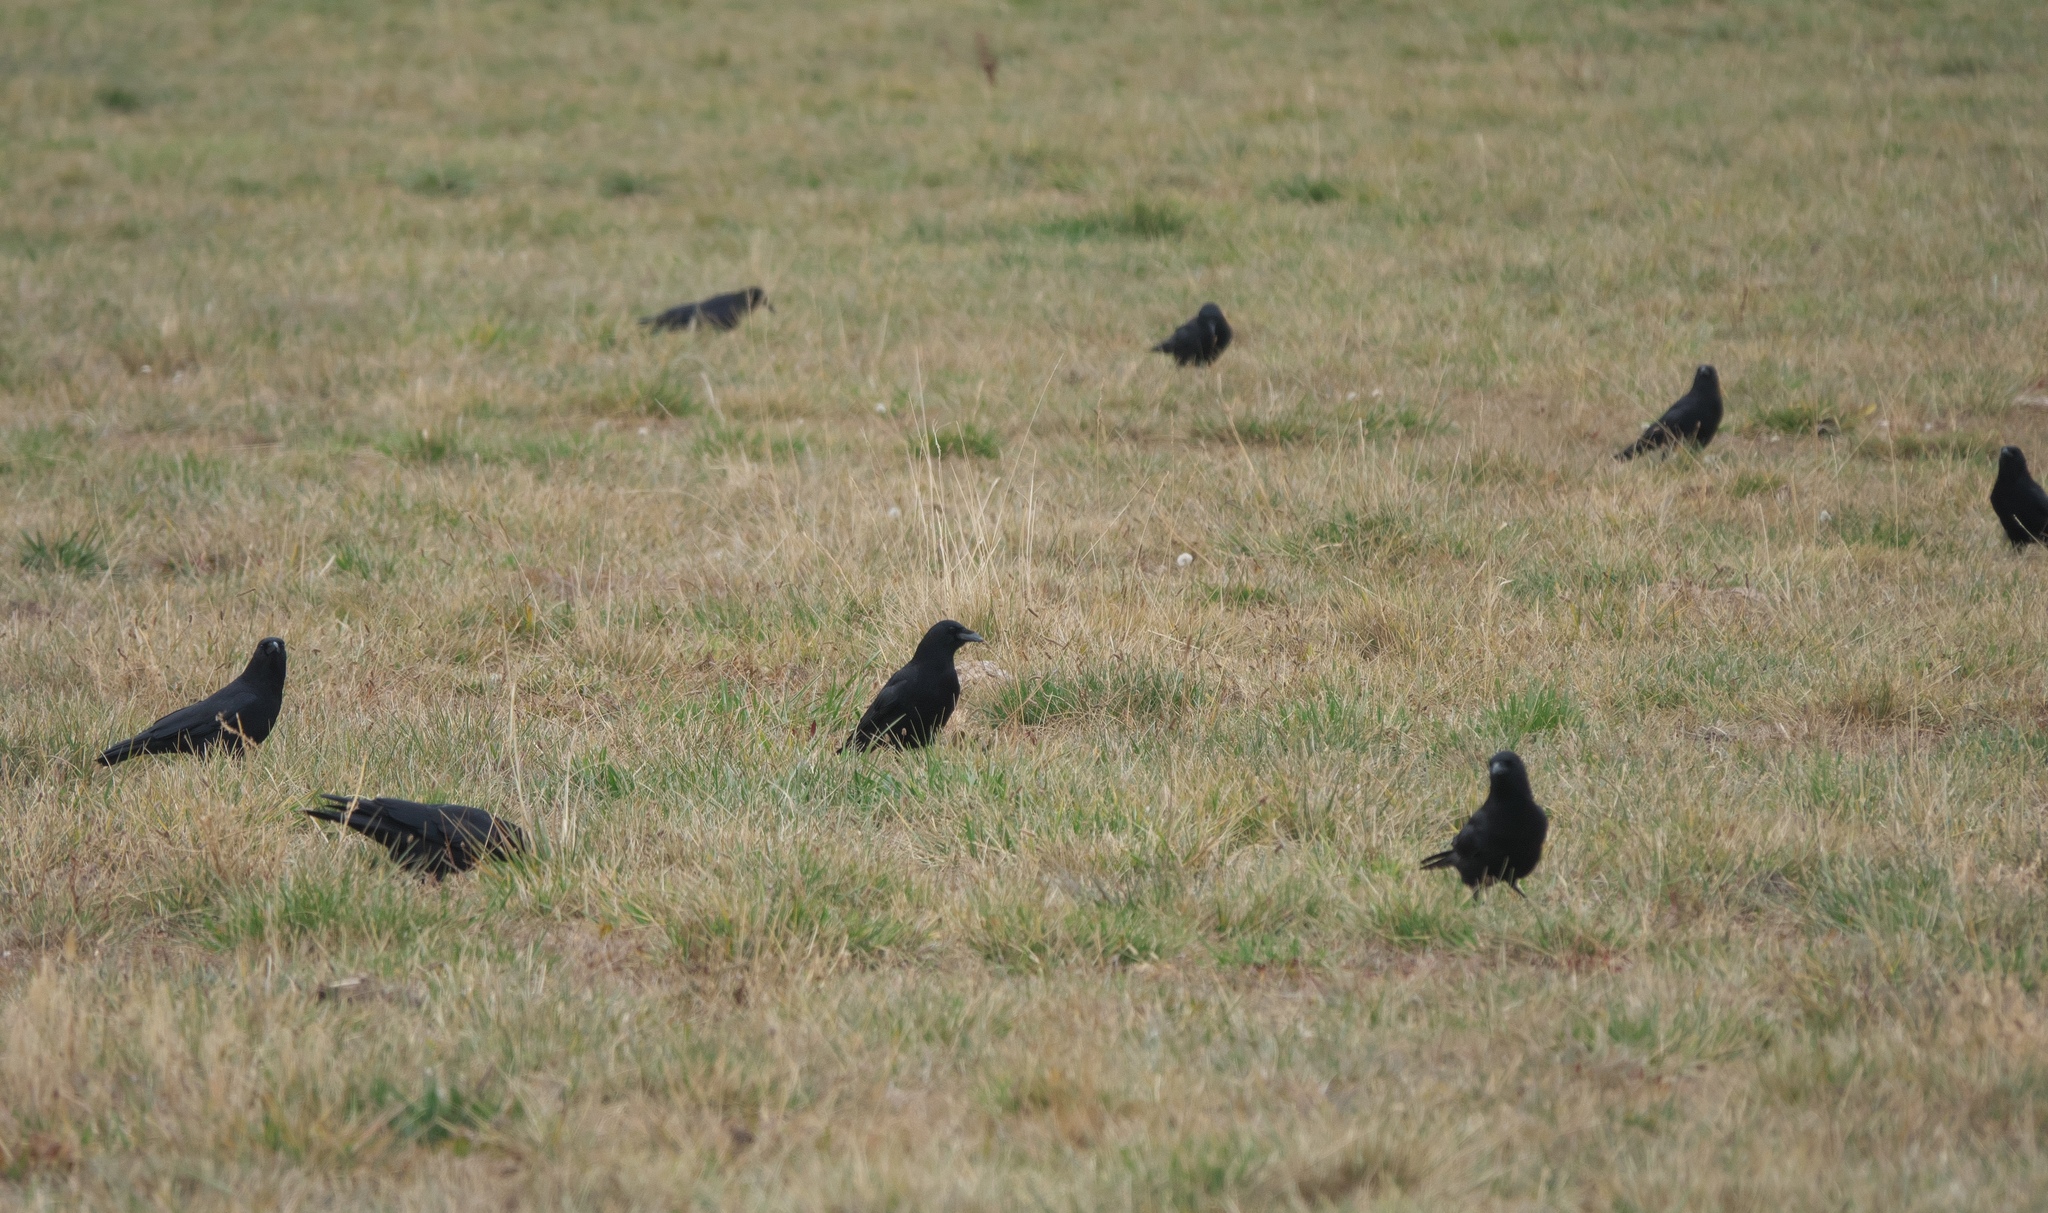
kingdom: Animalia
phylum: Chordata
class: Aves
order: Passeriformes
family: Corvidae
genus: Corvus
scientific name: Corvus brachyrhynchos
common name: American crow
